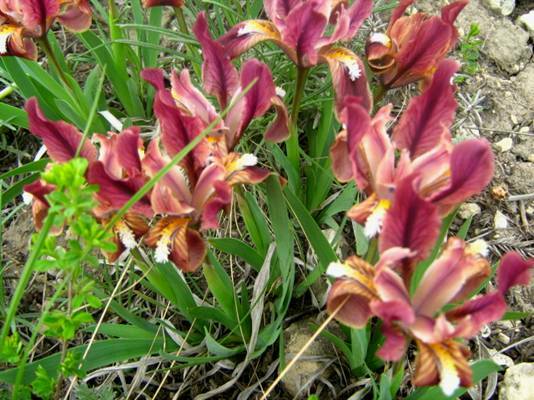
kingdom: Plantae
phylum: Tracheophyta
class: Liliopsida
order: Asparagales
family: Iridaceae
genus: Iris
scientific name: Iris pumila
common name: Dwarf iris
